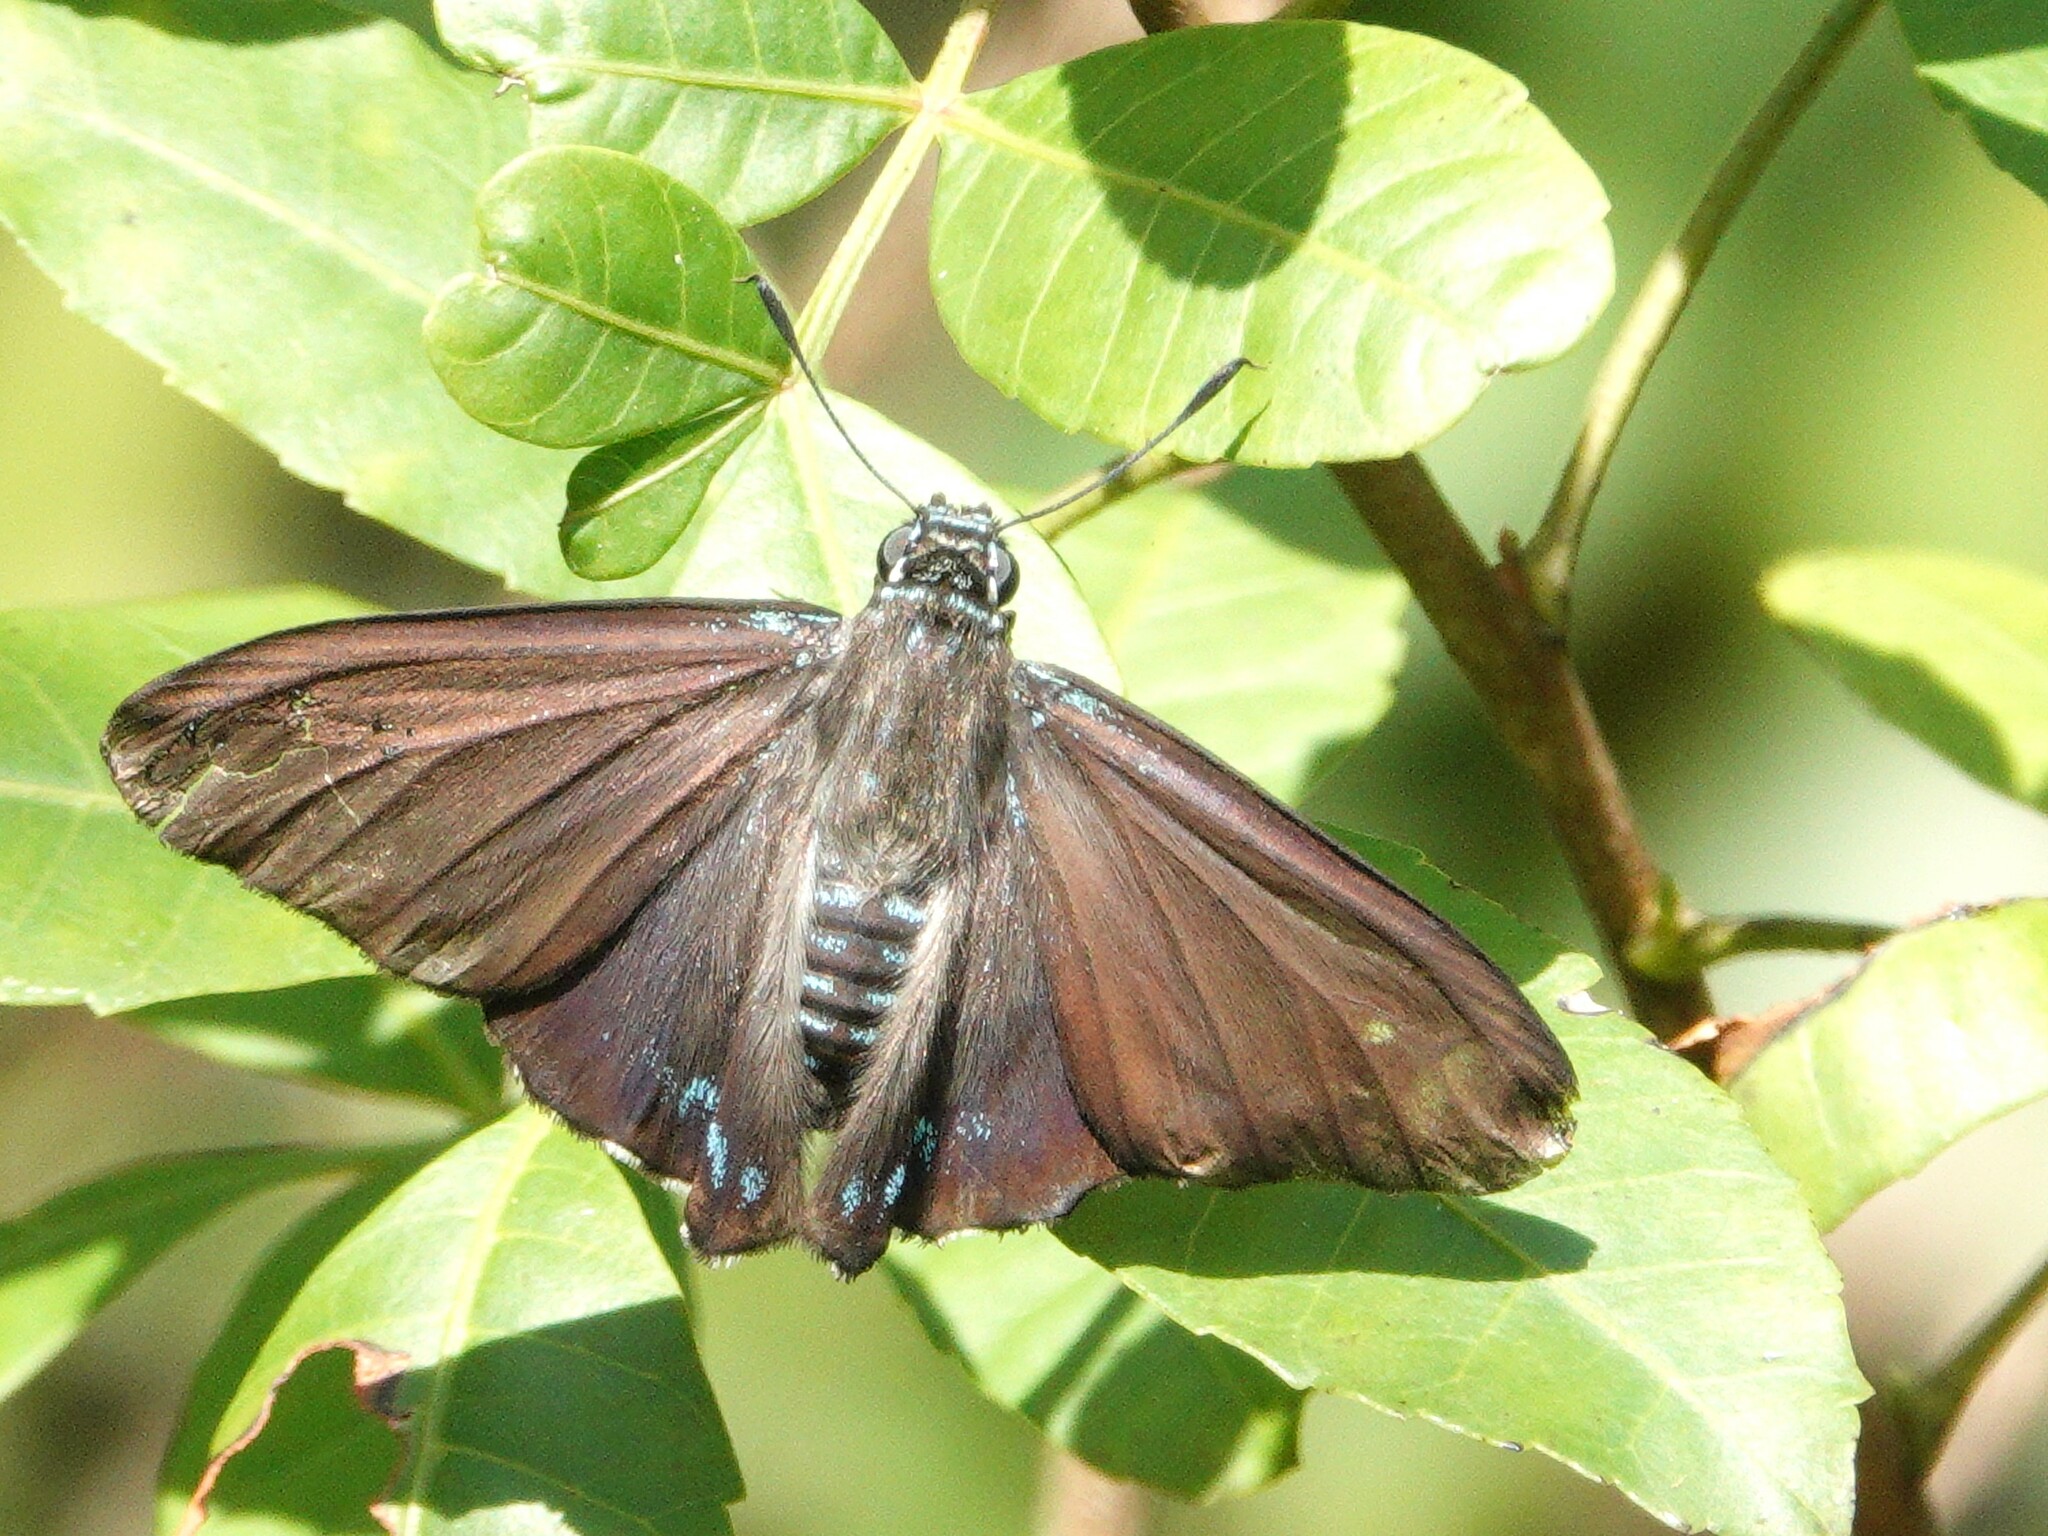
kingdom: Animalia
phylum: Arthropoda
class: Insecta
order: Lepidoptera
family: Hesperiidae
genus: Phocides
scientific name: Phocides pigmalion
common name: Mangrove skipper
